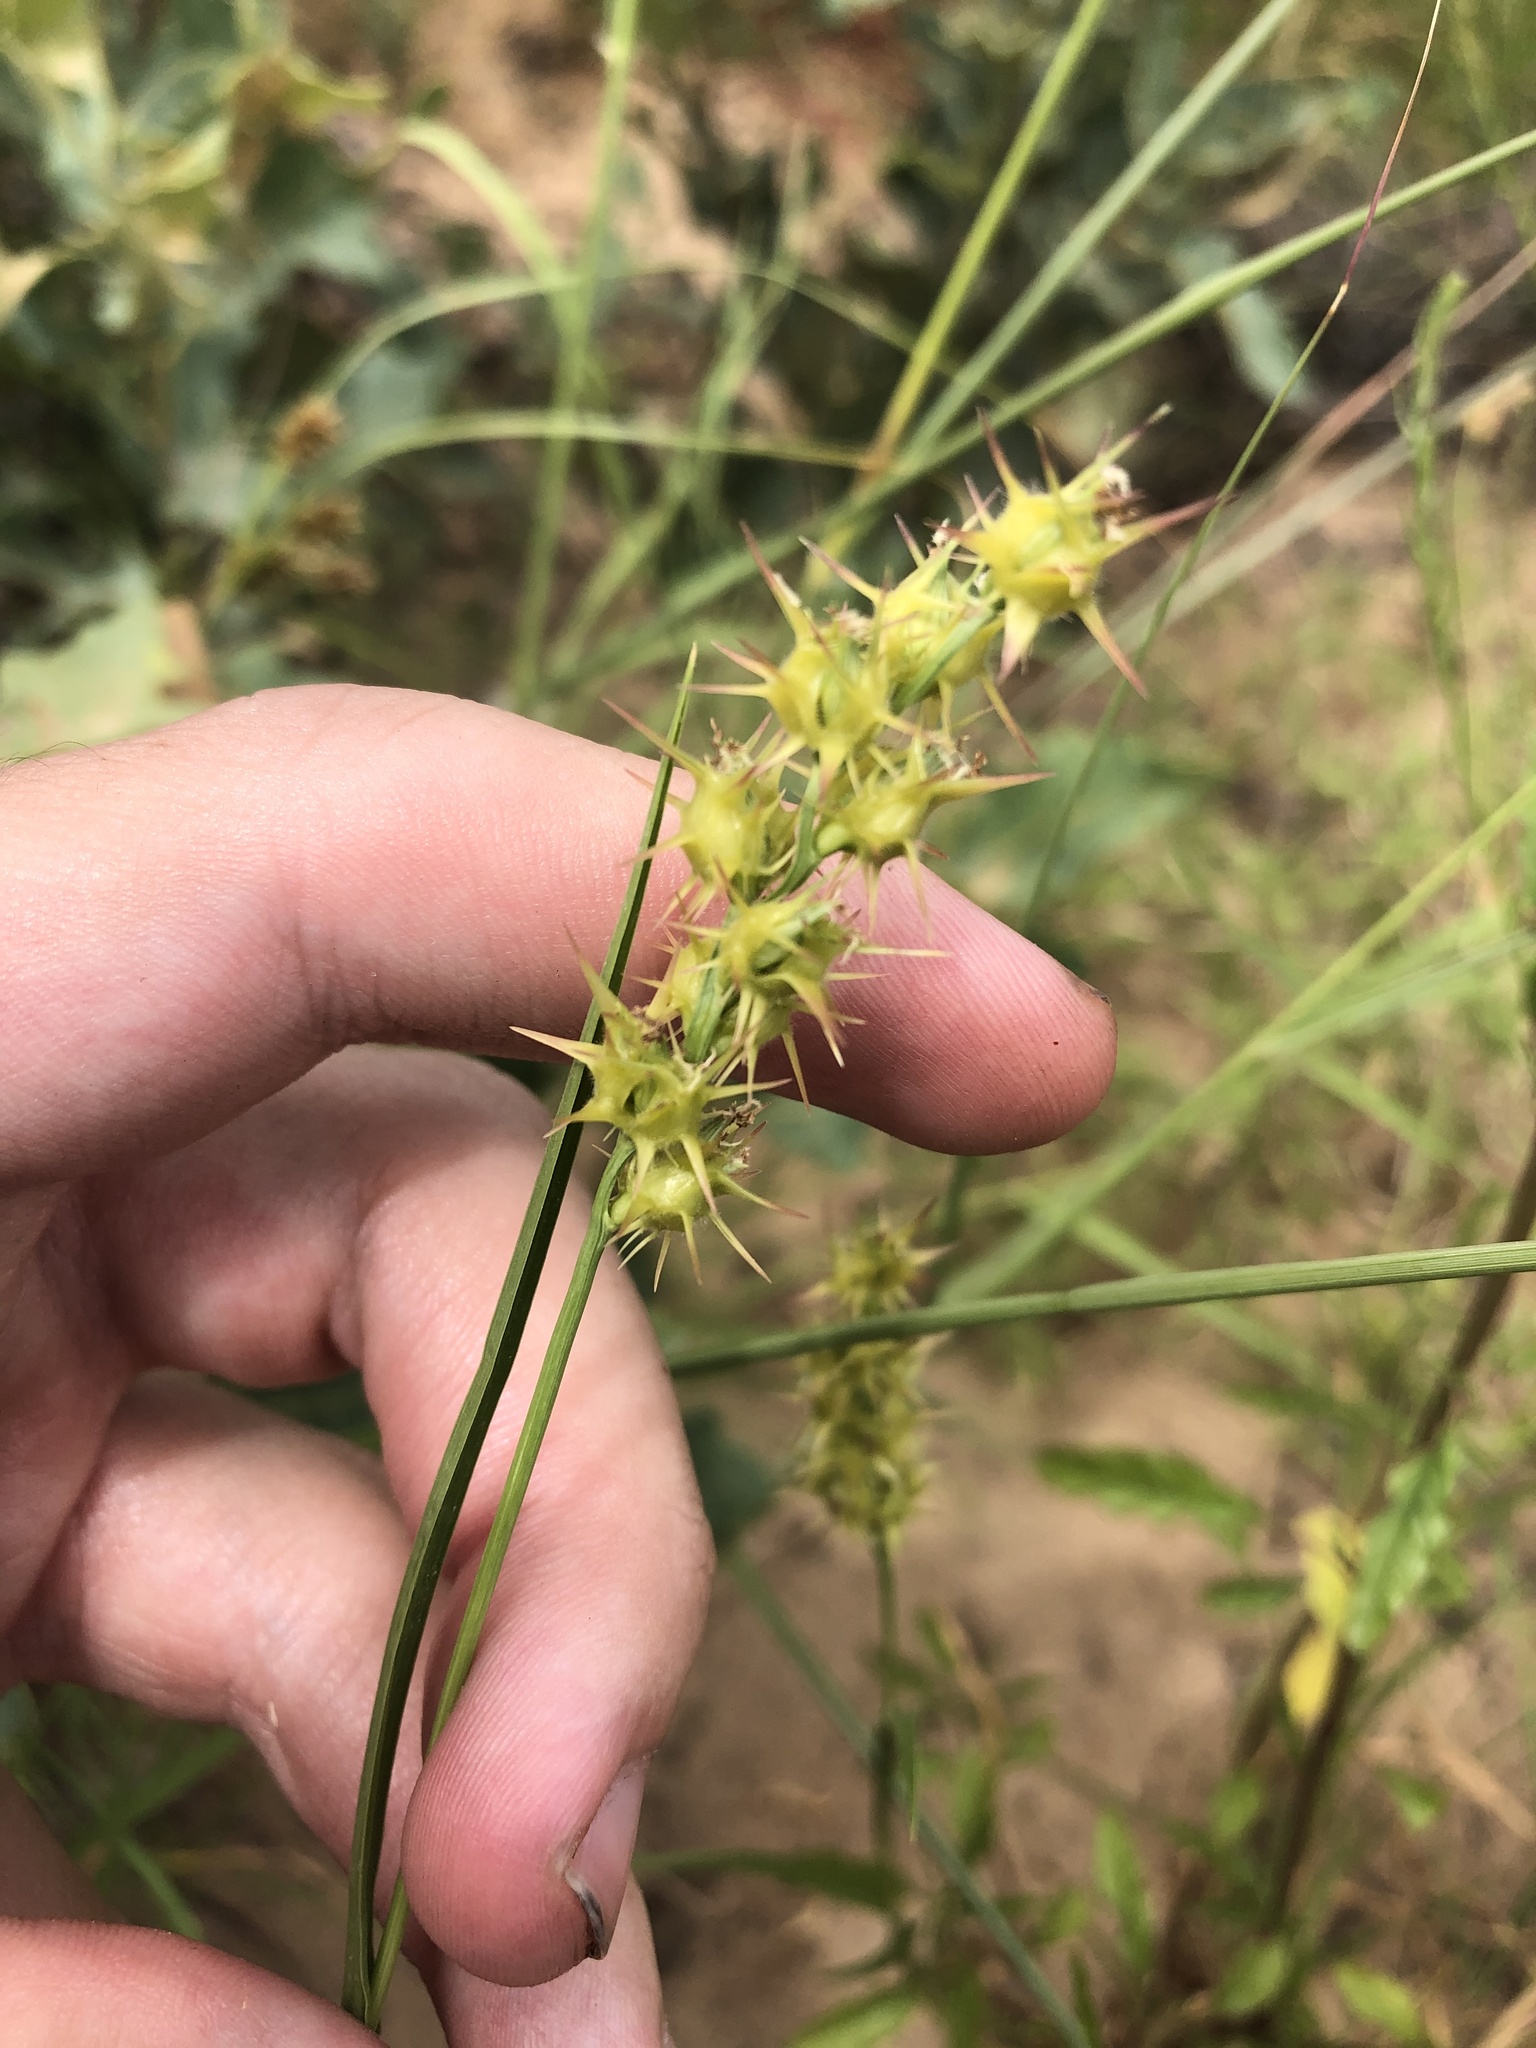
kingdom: Plantae
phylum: Tracheophyta
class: Liliopsida
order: Poales
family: Poaceae
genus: Cenchrus
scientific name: Cenchrus spinifex
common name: Coast sandbur
